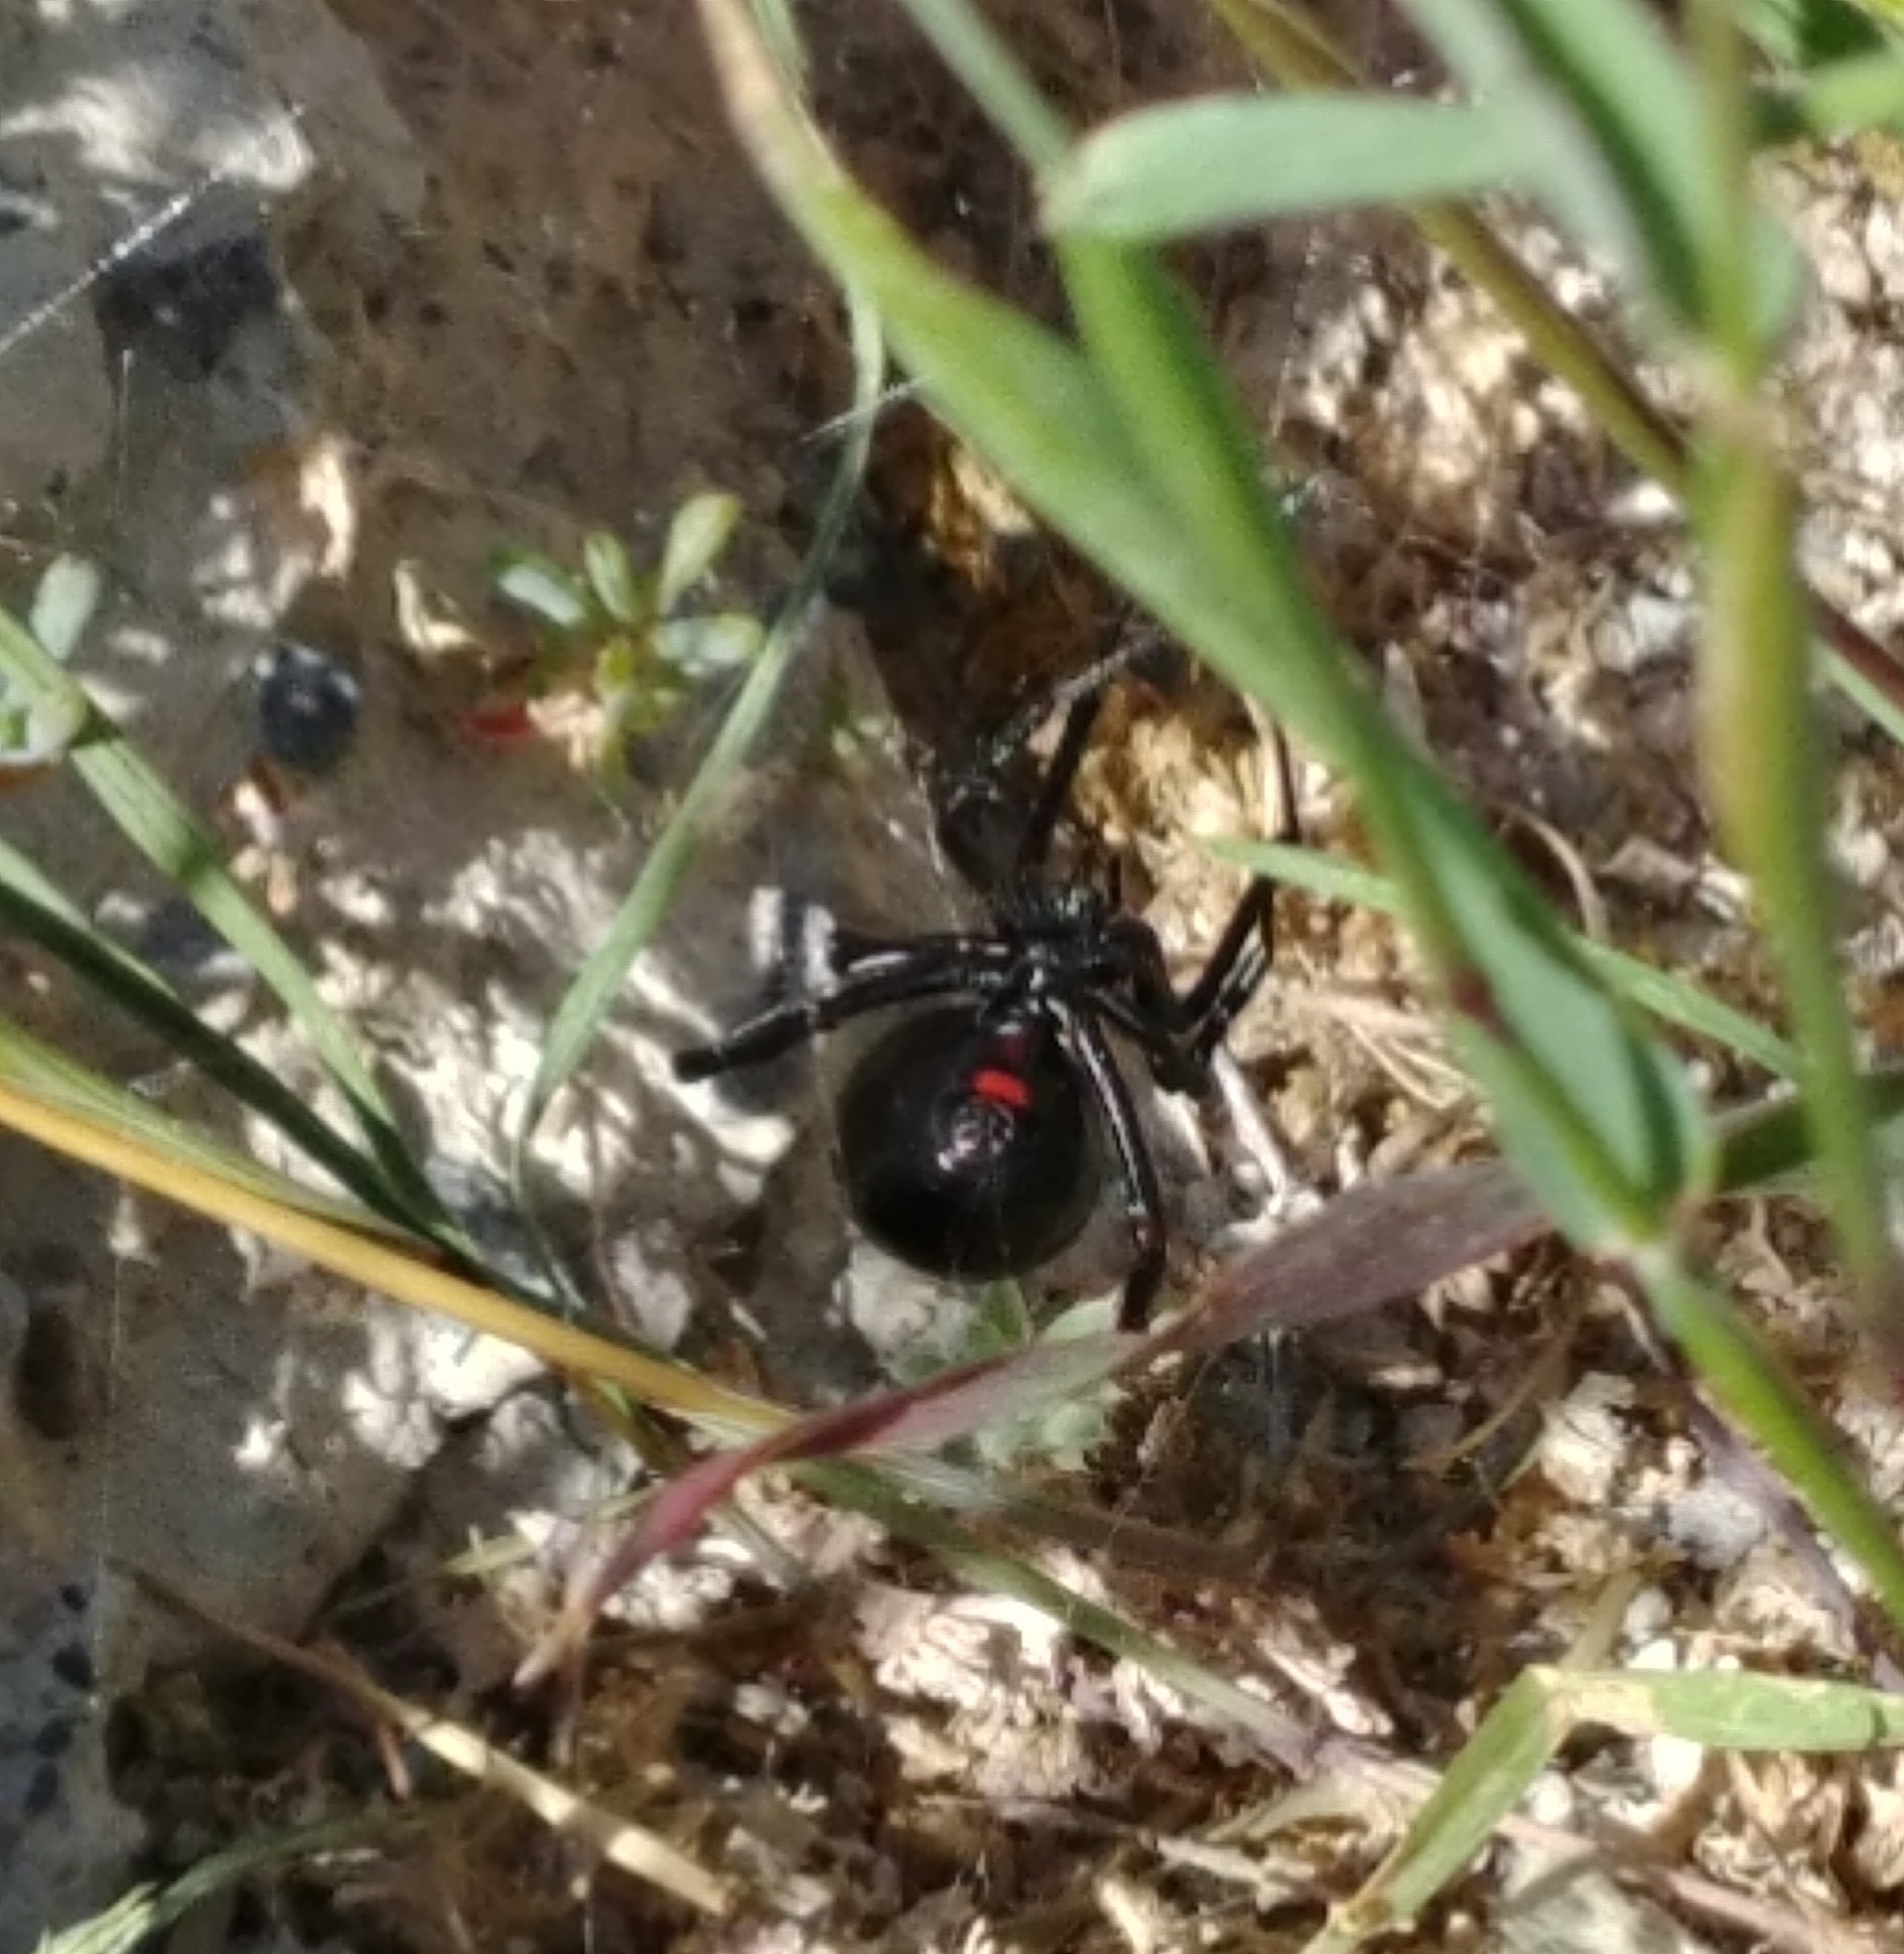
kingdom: Animalia
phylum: Arthropoda
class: Arachnida
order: Araneae
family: Theridiidae
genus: Latrodectus
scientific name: Latrodectus hesperus
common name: Western black widow
